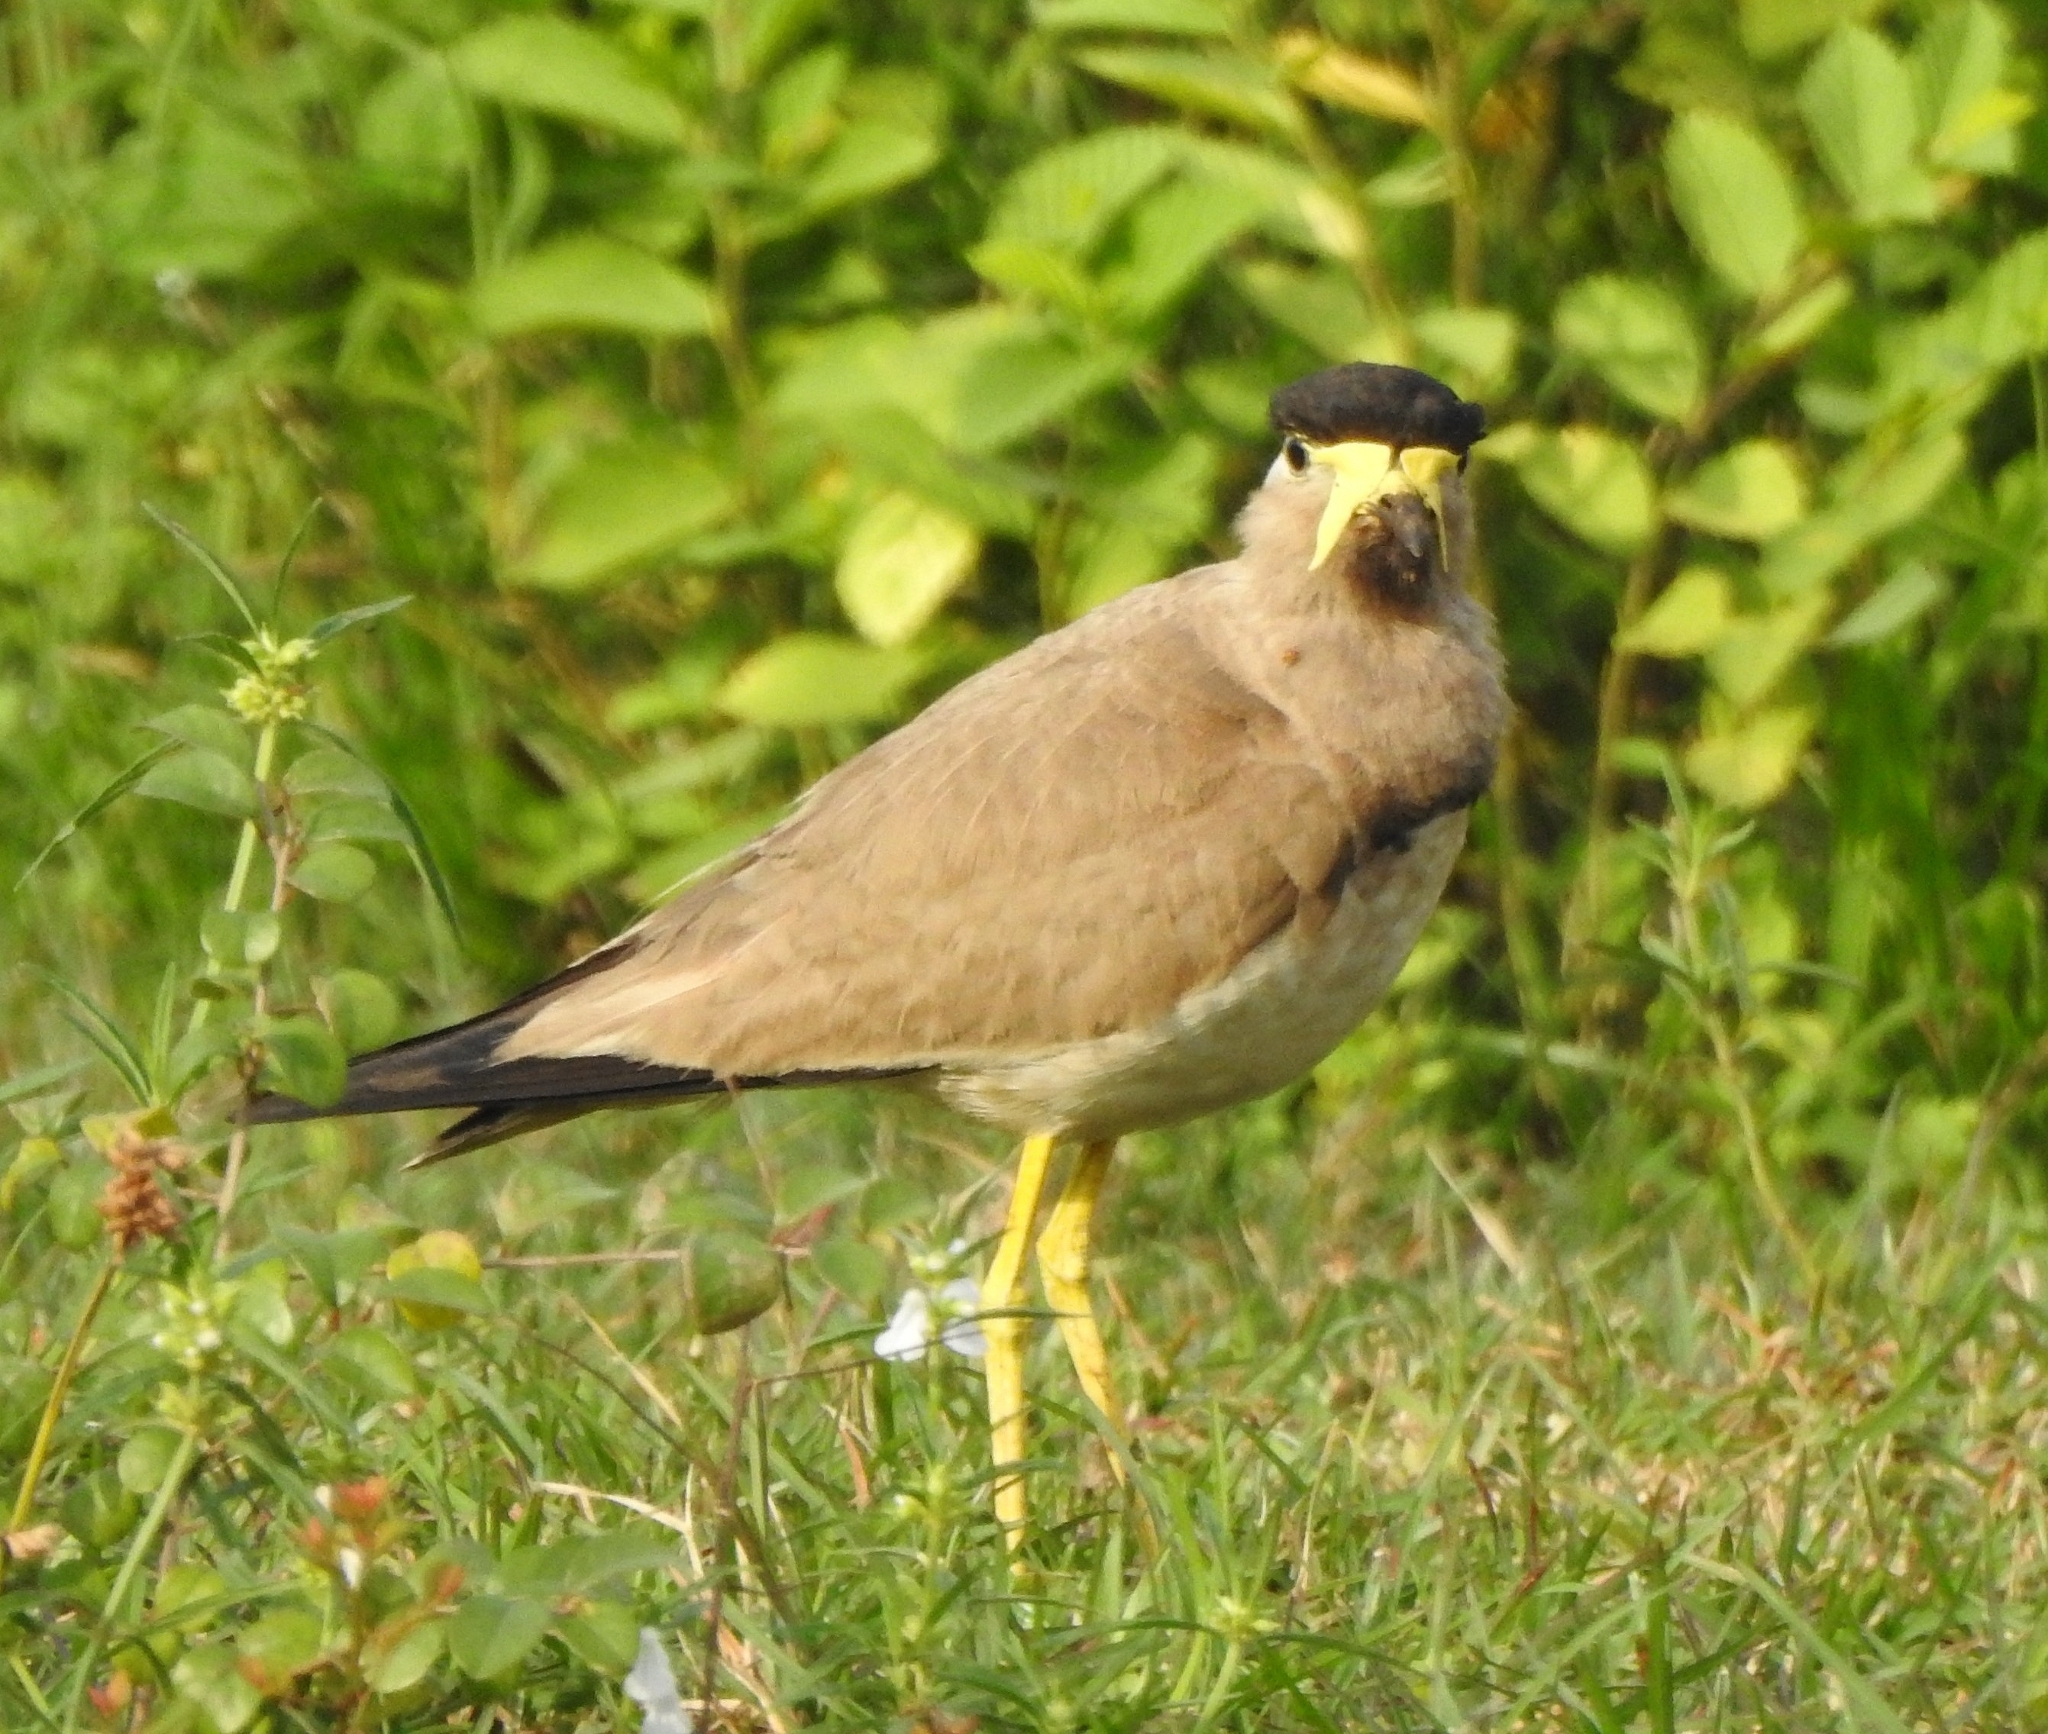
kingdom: Animalia
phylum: Chordata
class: Aves
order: Charadriiformes
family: Charadriidae
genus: Vanellus
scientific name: Vanellus malabaricus
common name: Yellow-wattled lapwing
